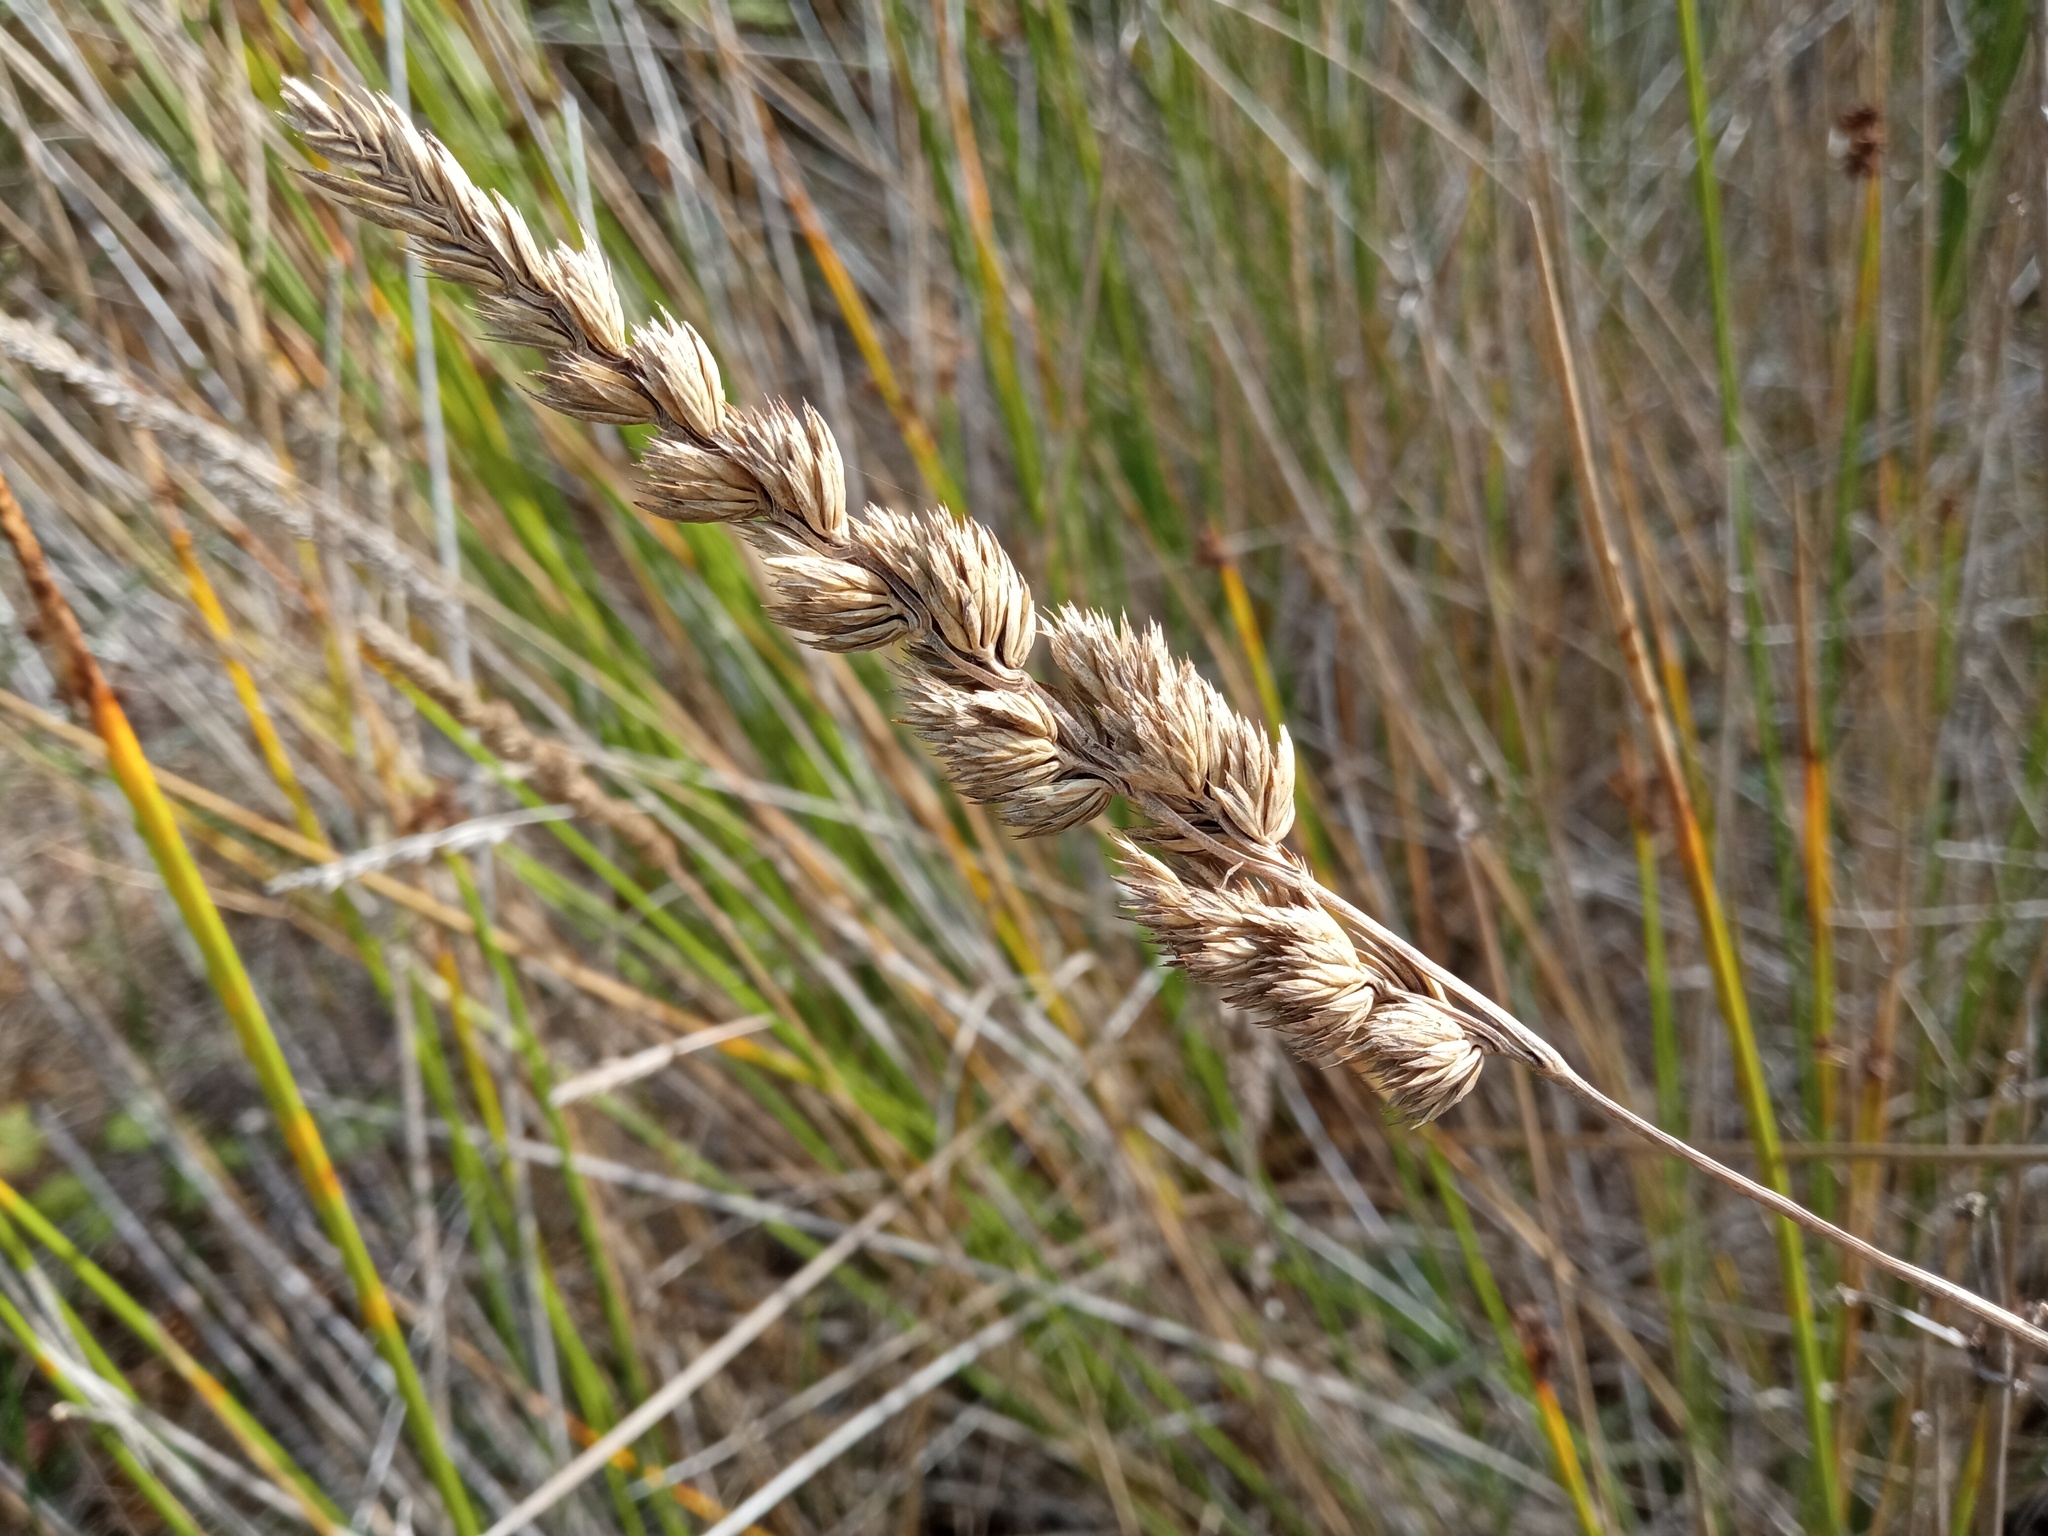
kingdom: Plantae
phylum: Tracheophyta
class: Liliopsida
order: Poales
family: Poaceae
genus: Dactylis
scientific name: Dactylis glomerata
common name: Orchardgrass
